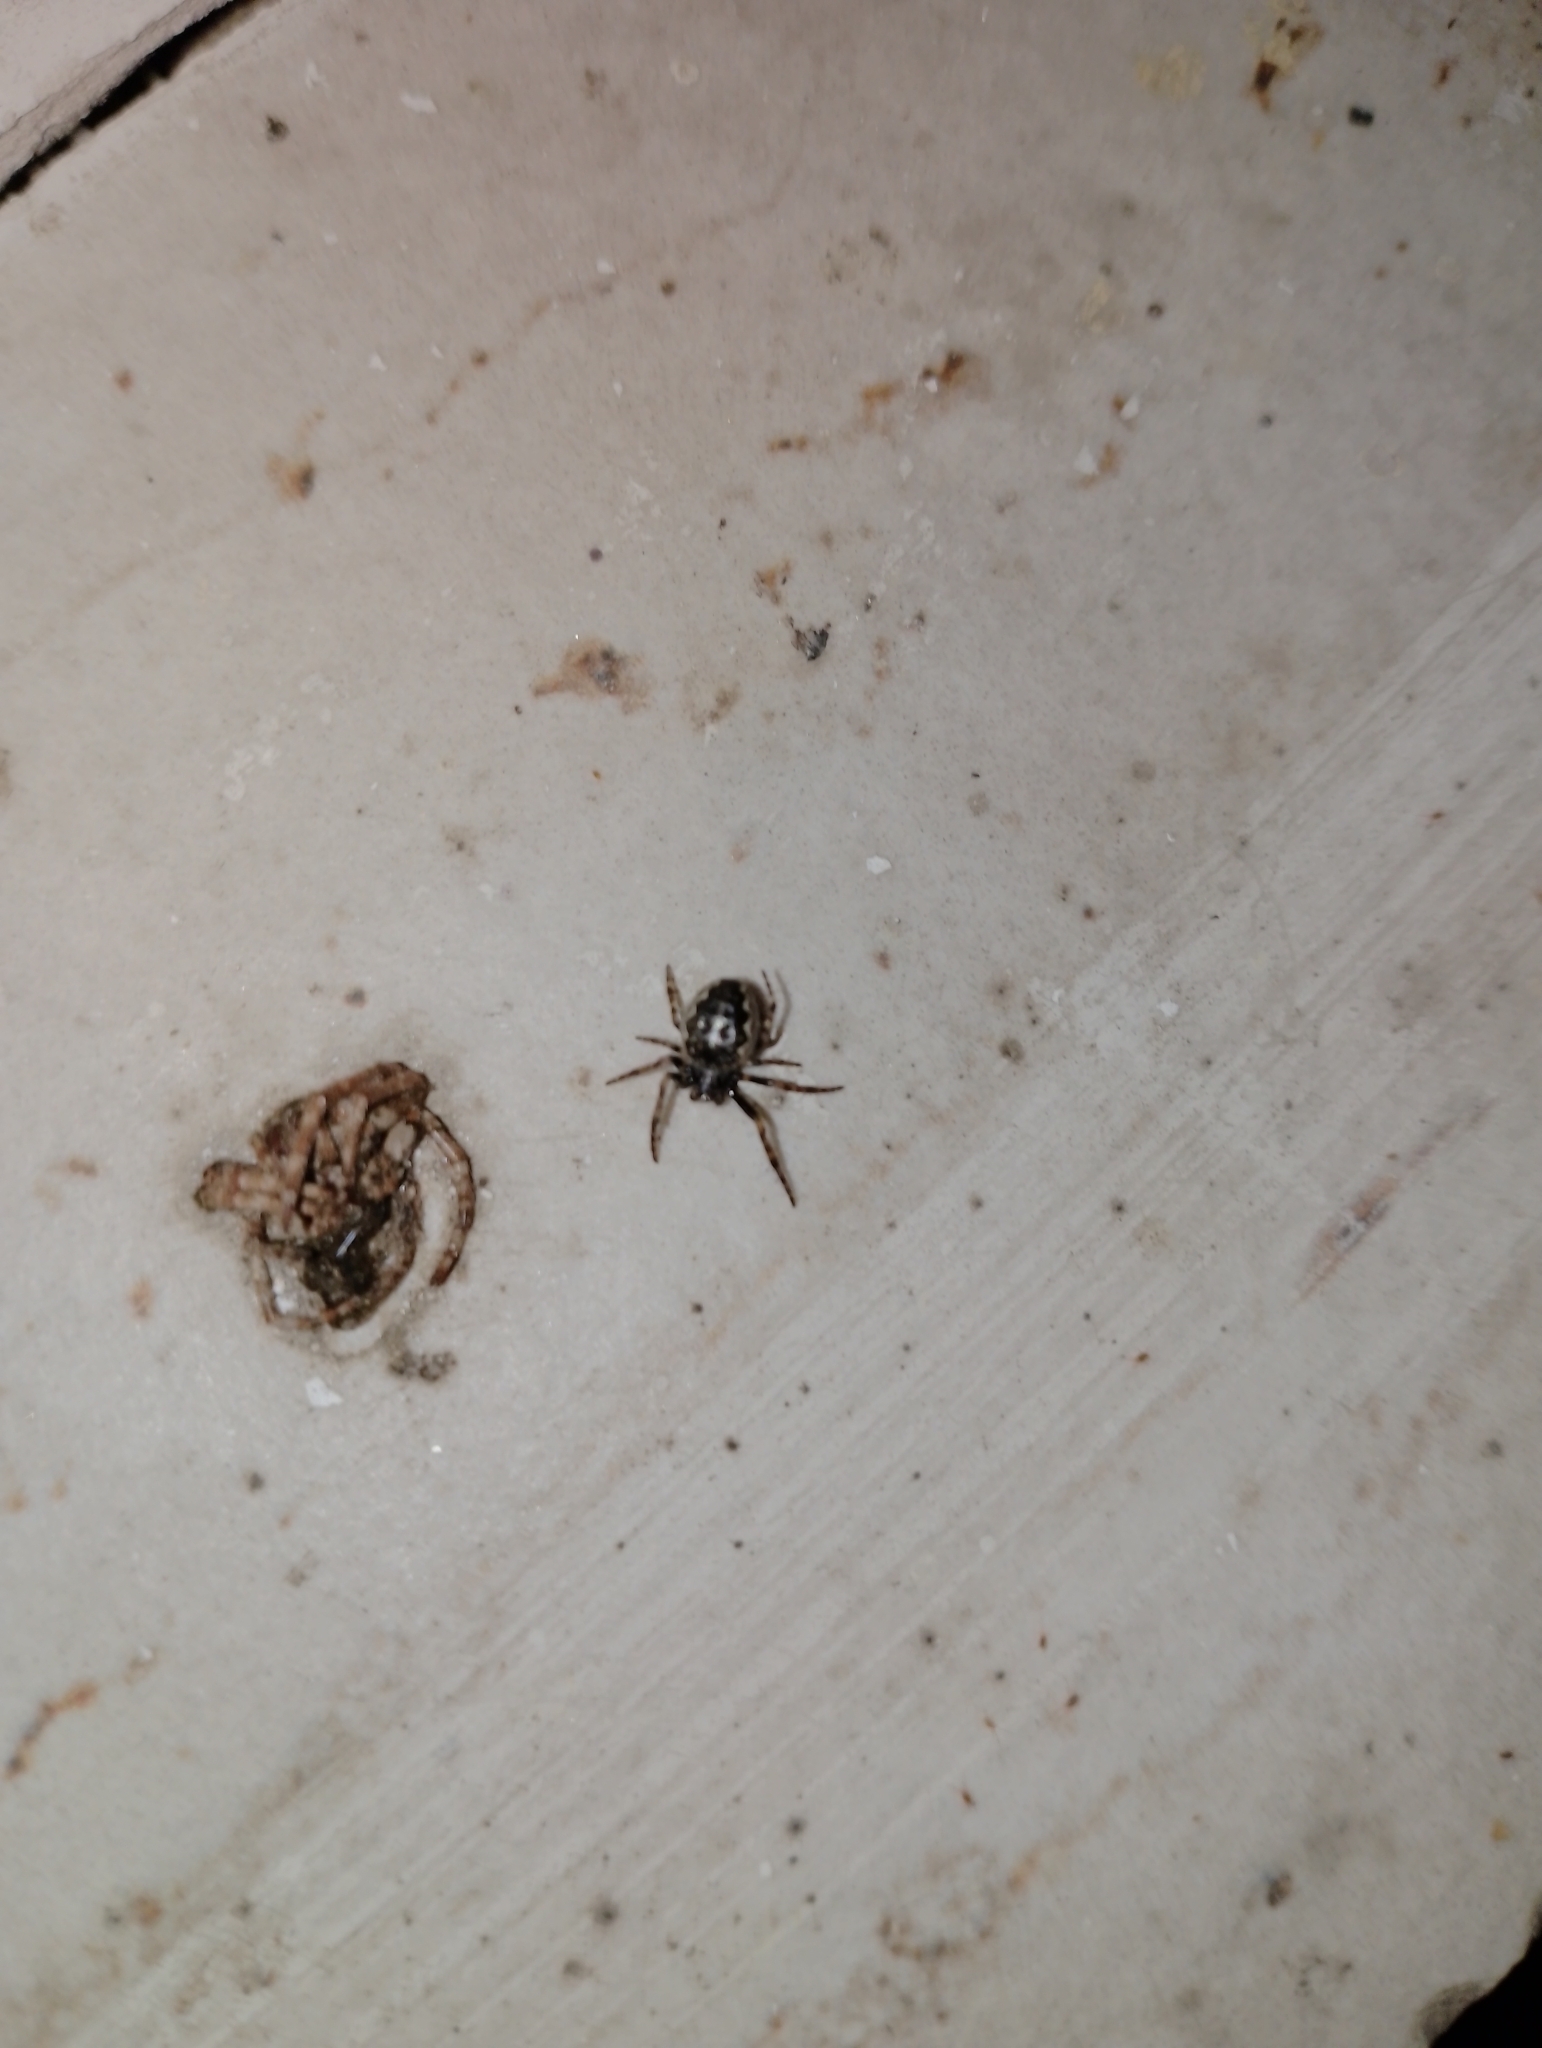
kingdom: Animalia
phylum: Arthropoda
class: Arachnida
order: Araneae
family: Araneidae
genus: Nuctenea
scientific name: Nuctenea umbratica
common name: Toad spider
